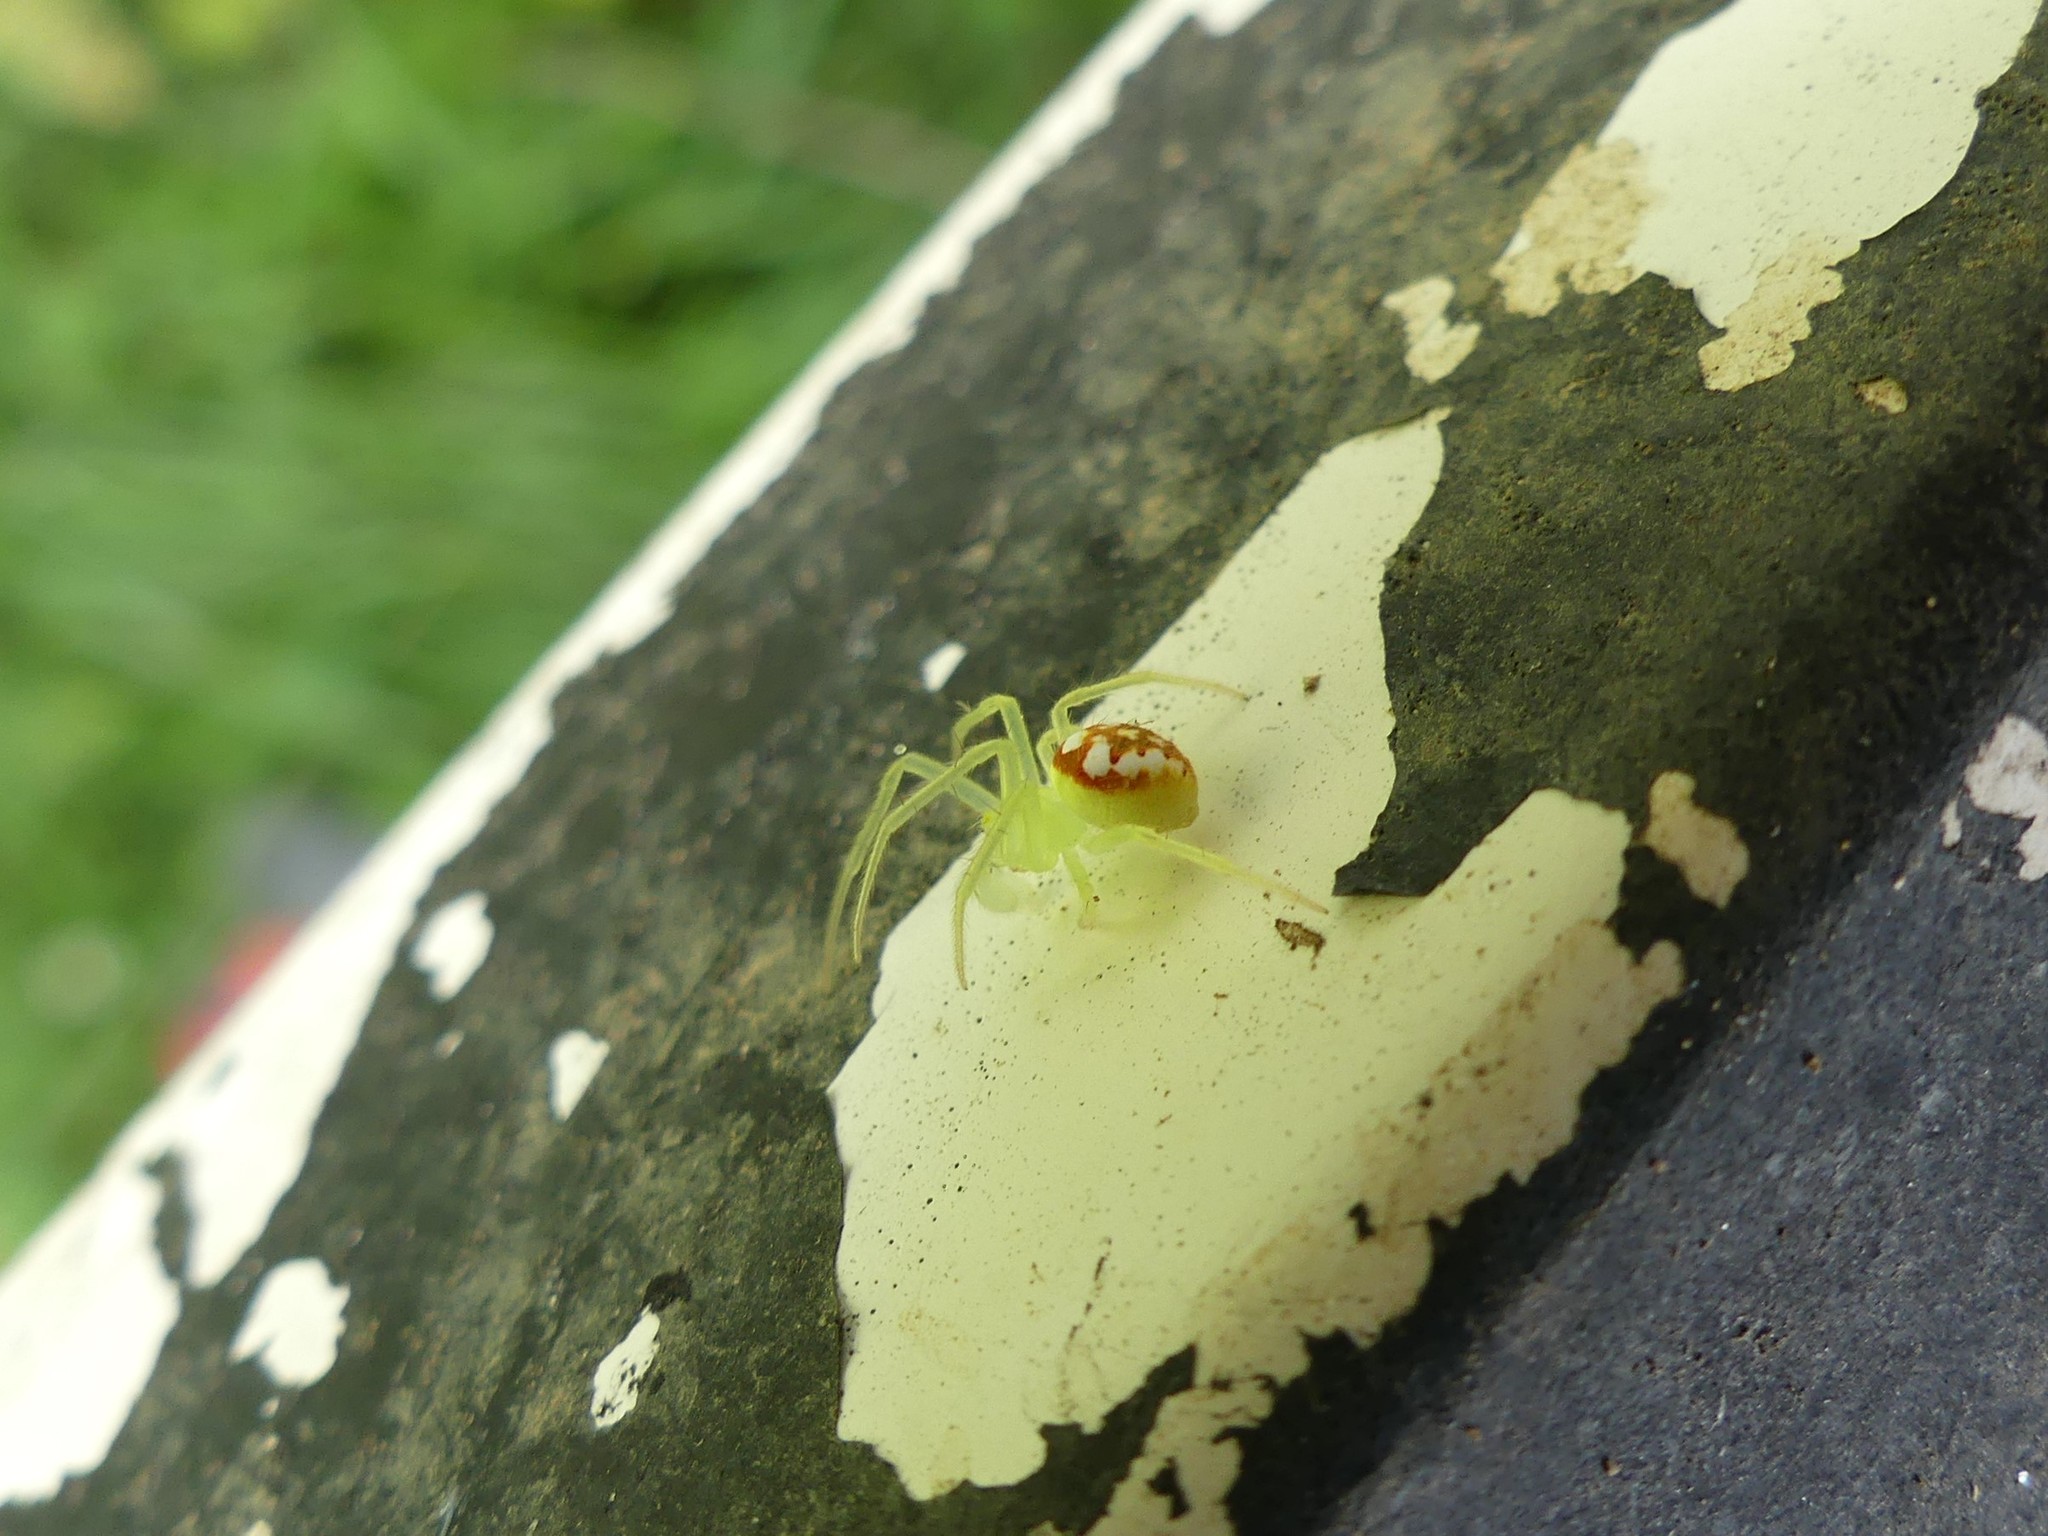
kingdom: Animalia
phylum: Arthropoda
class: Arachnida
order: Araneae
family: Araneidae
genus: Araneus
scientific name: Araneus guttulatus
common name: Red-backed orbweaver
